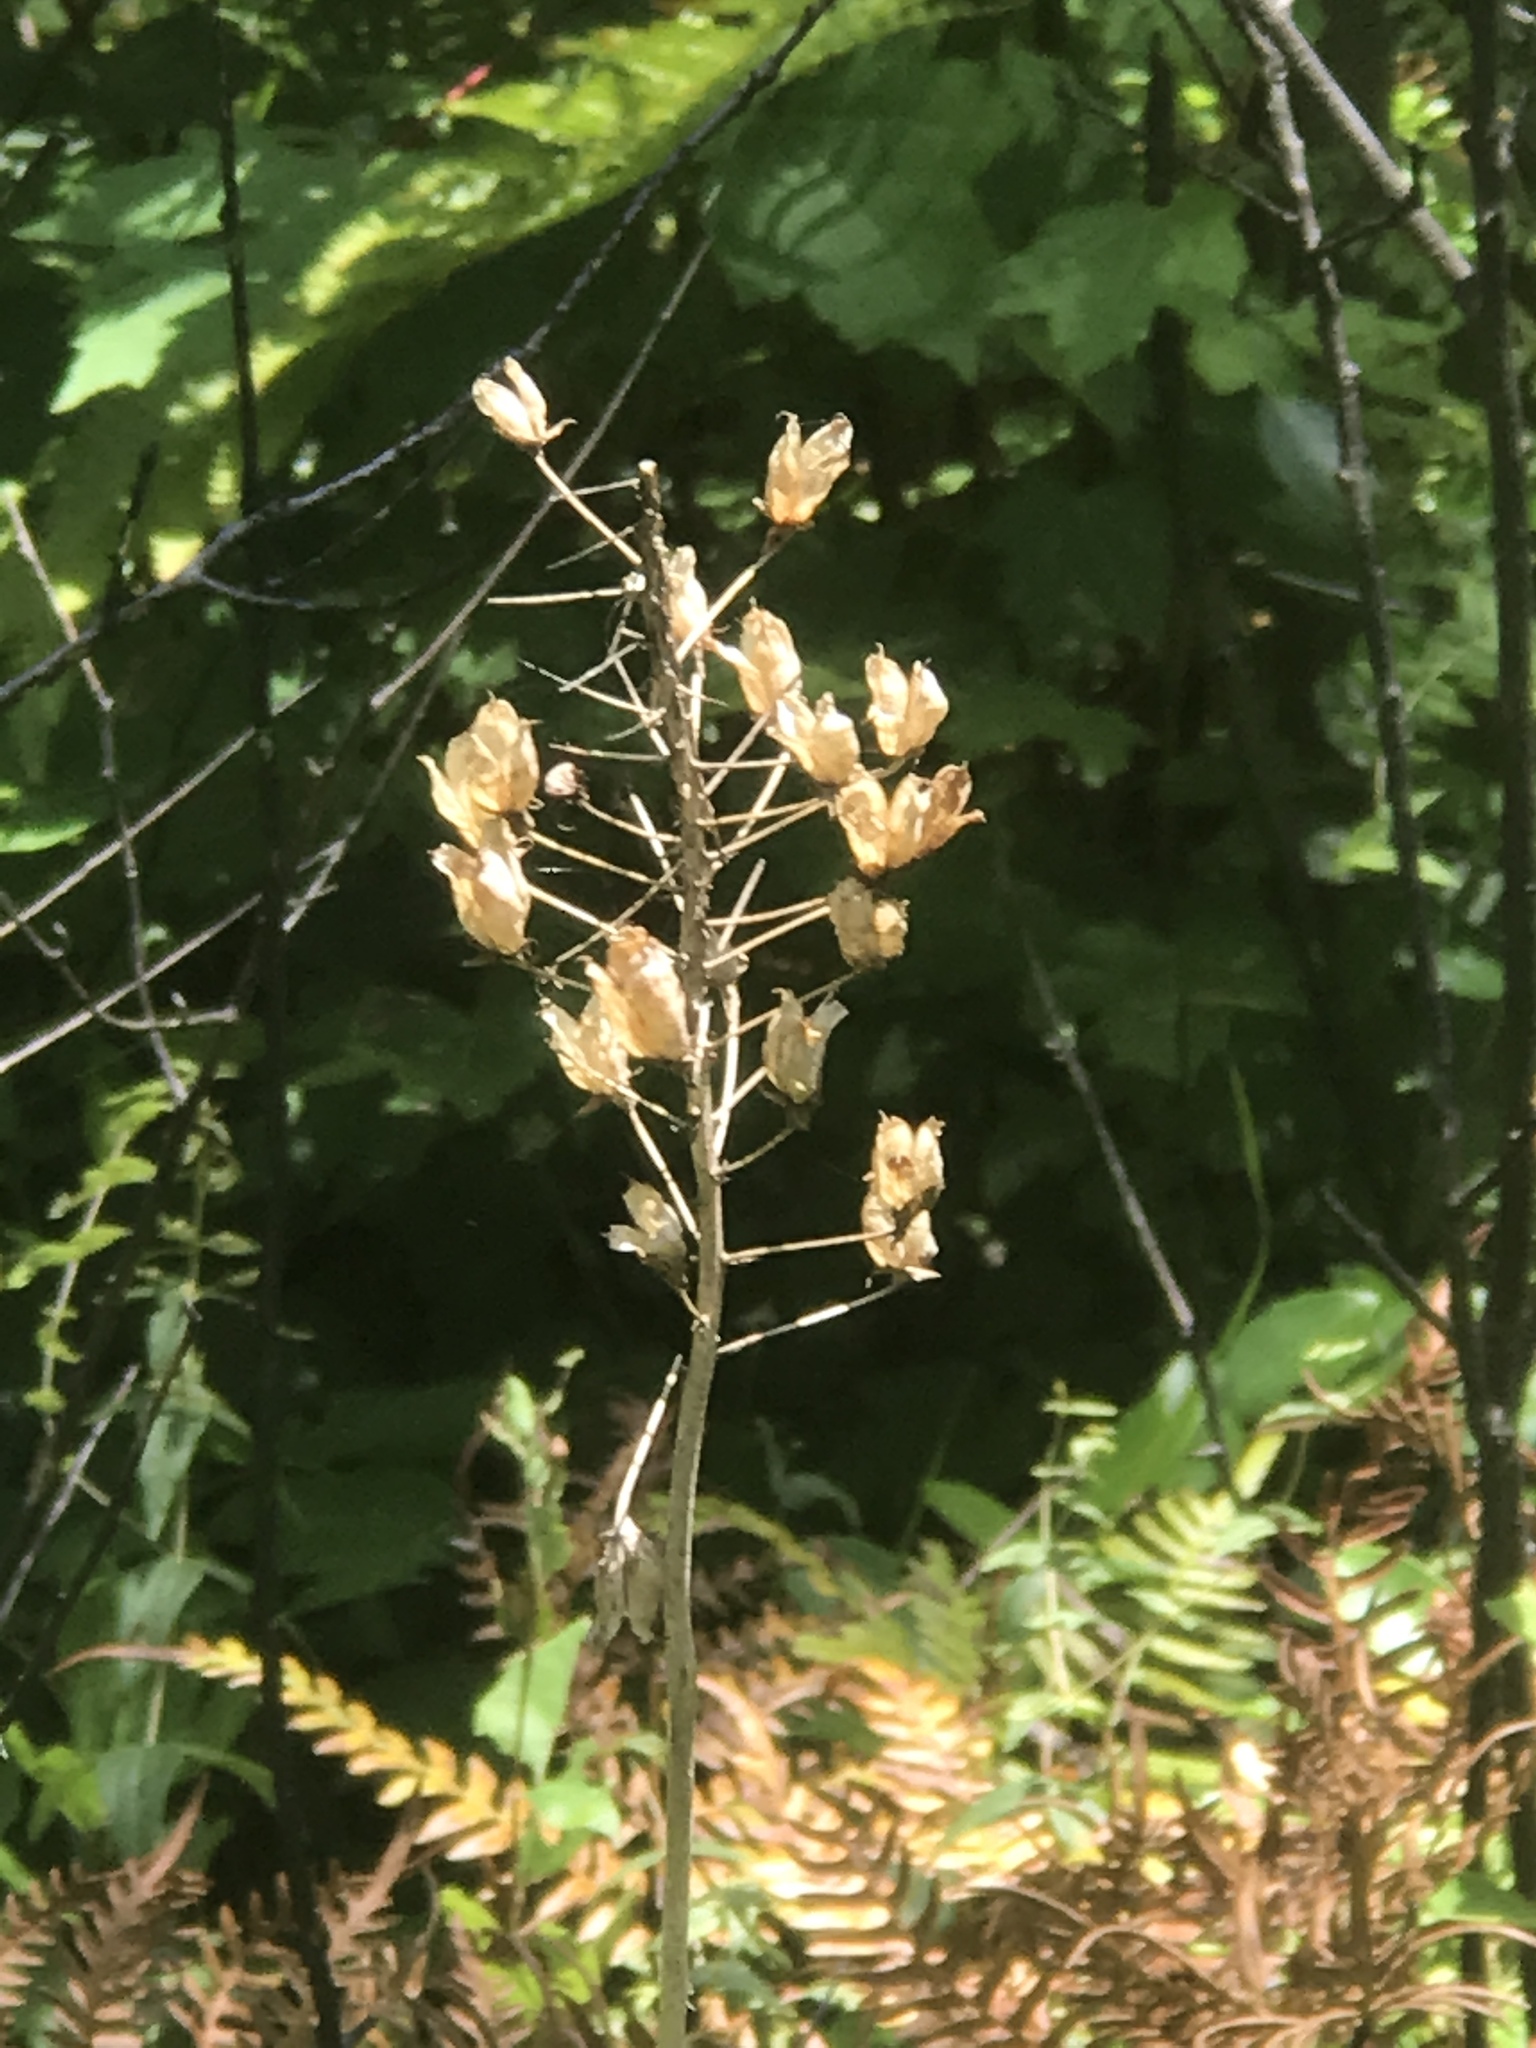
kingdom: Plantae
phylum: Tracheophyta
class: Liliopsida
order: Liliales
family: Melanthiaceae
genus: Stenanthium
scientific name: Stenanthium densum
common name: Crow-poison
